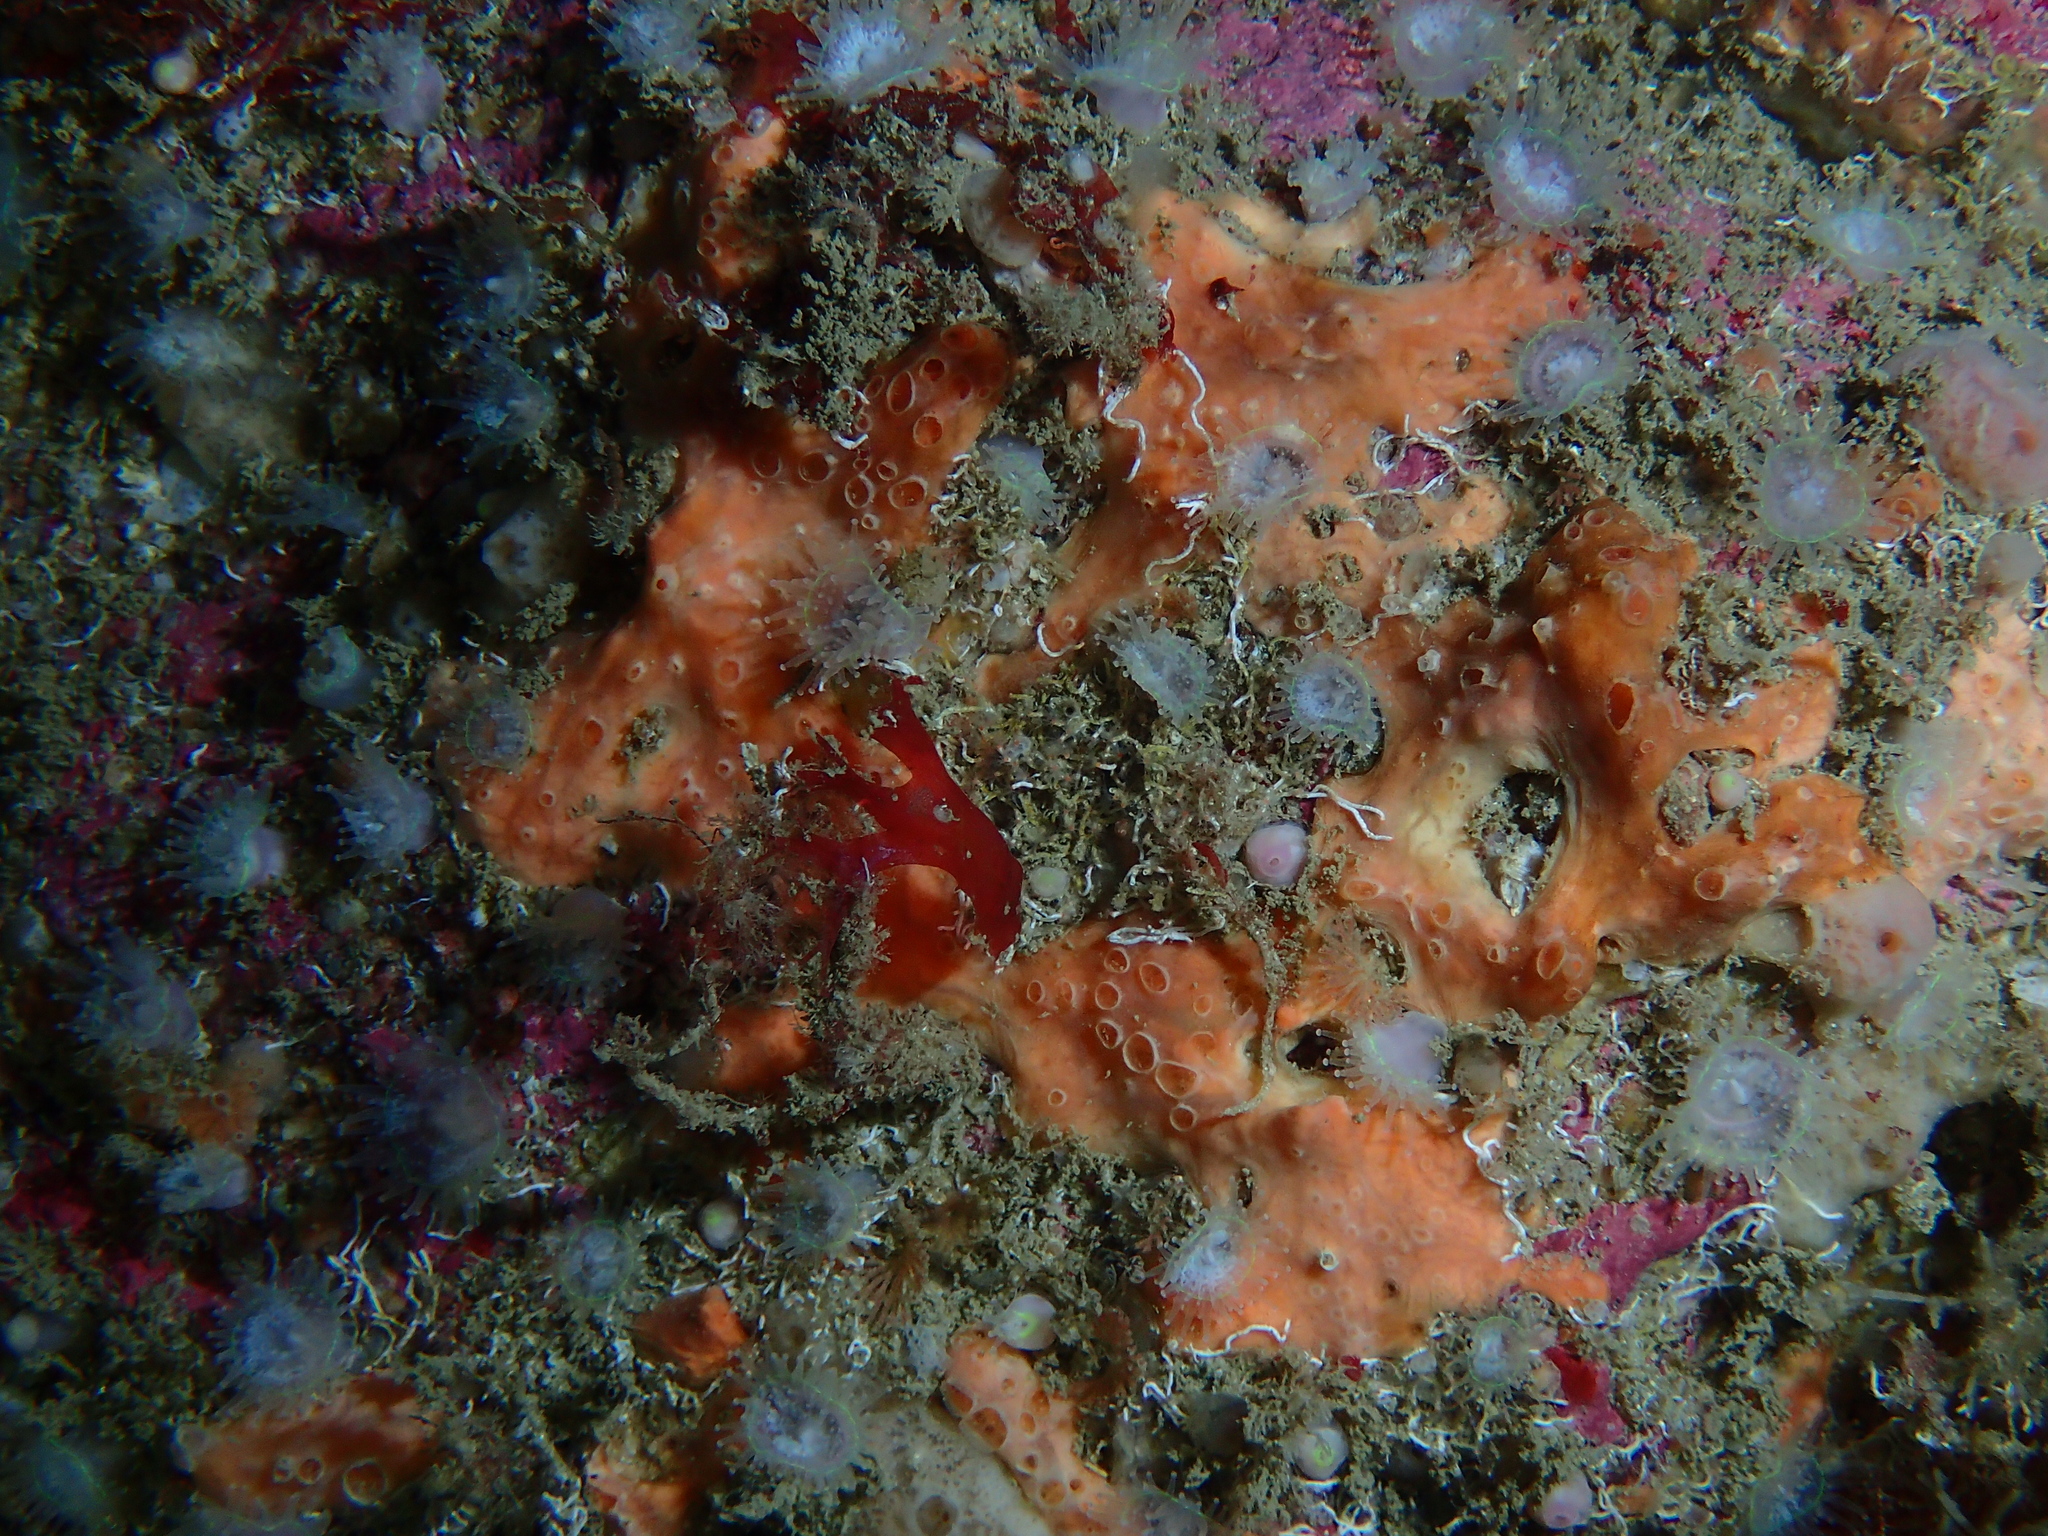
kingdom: Animalia
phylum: Porifera
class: Demospongiae
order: Poecilosclerida
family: Hymedesmiidae
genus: Hemimycale
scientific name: Hemimycale columella
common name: Crater sponge
